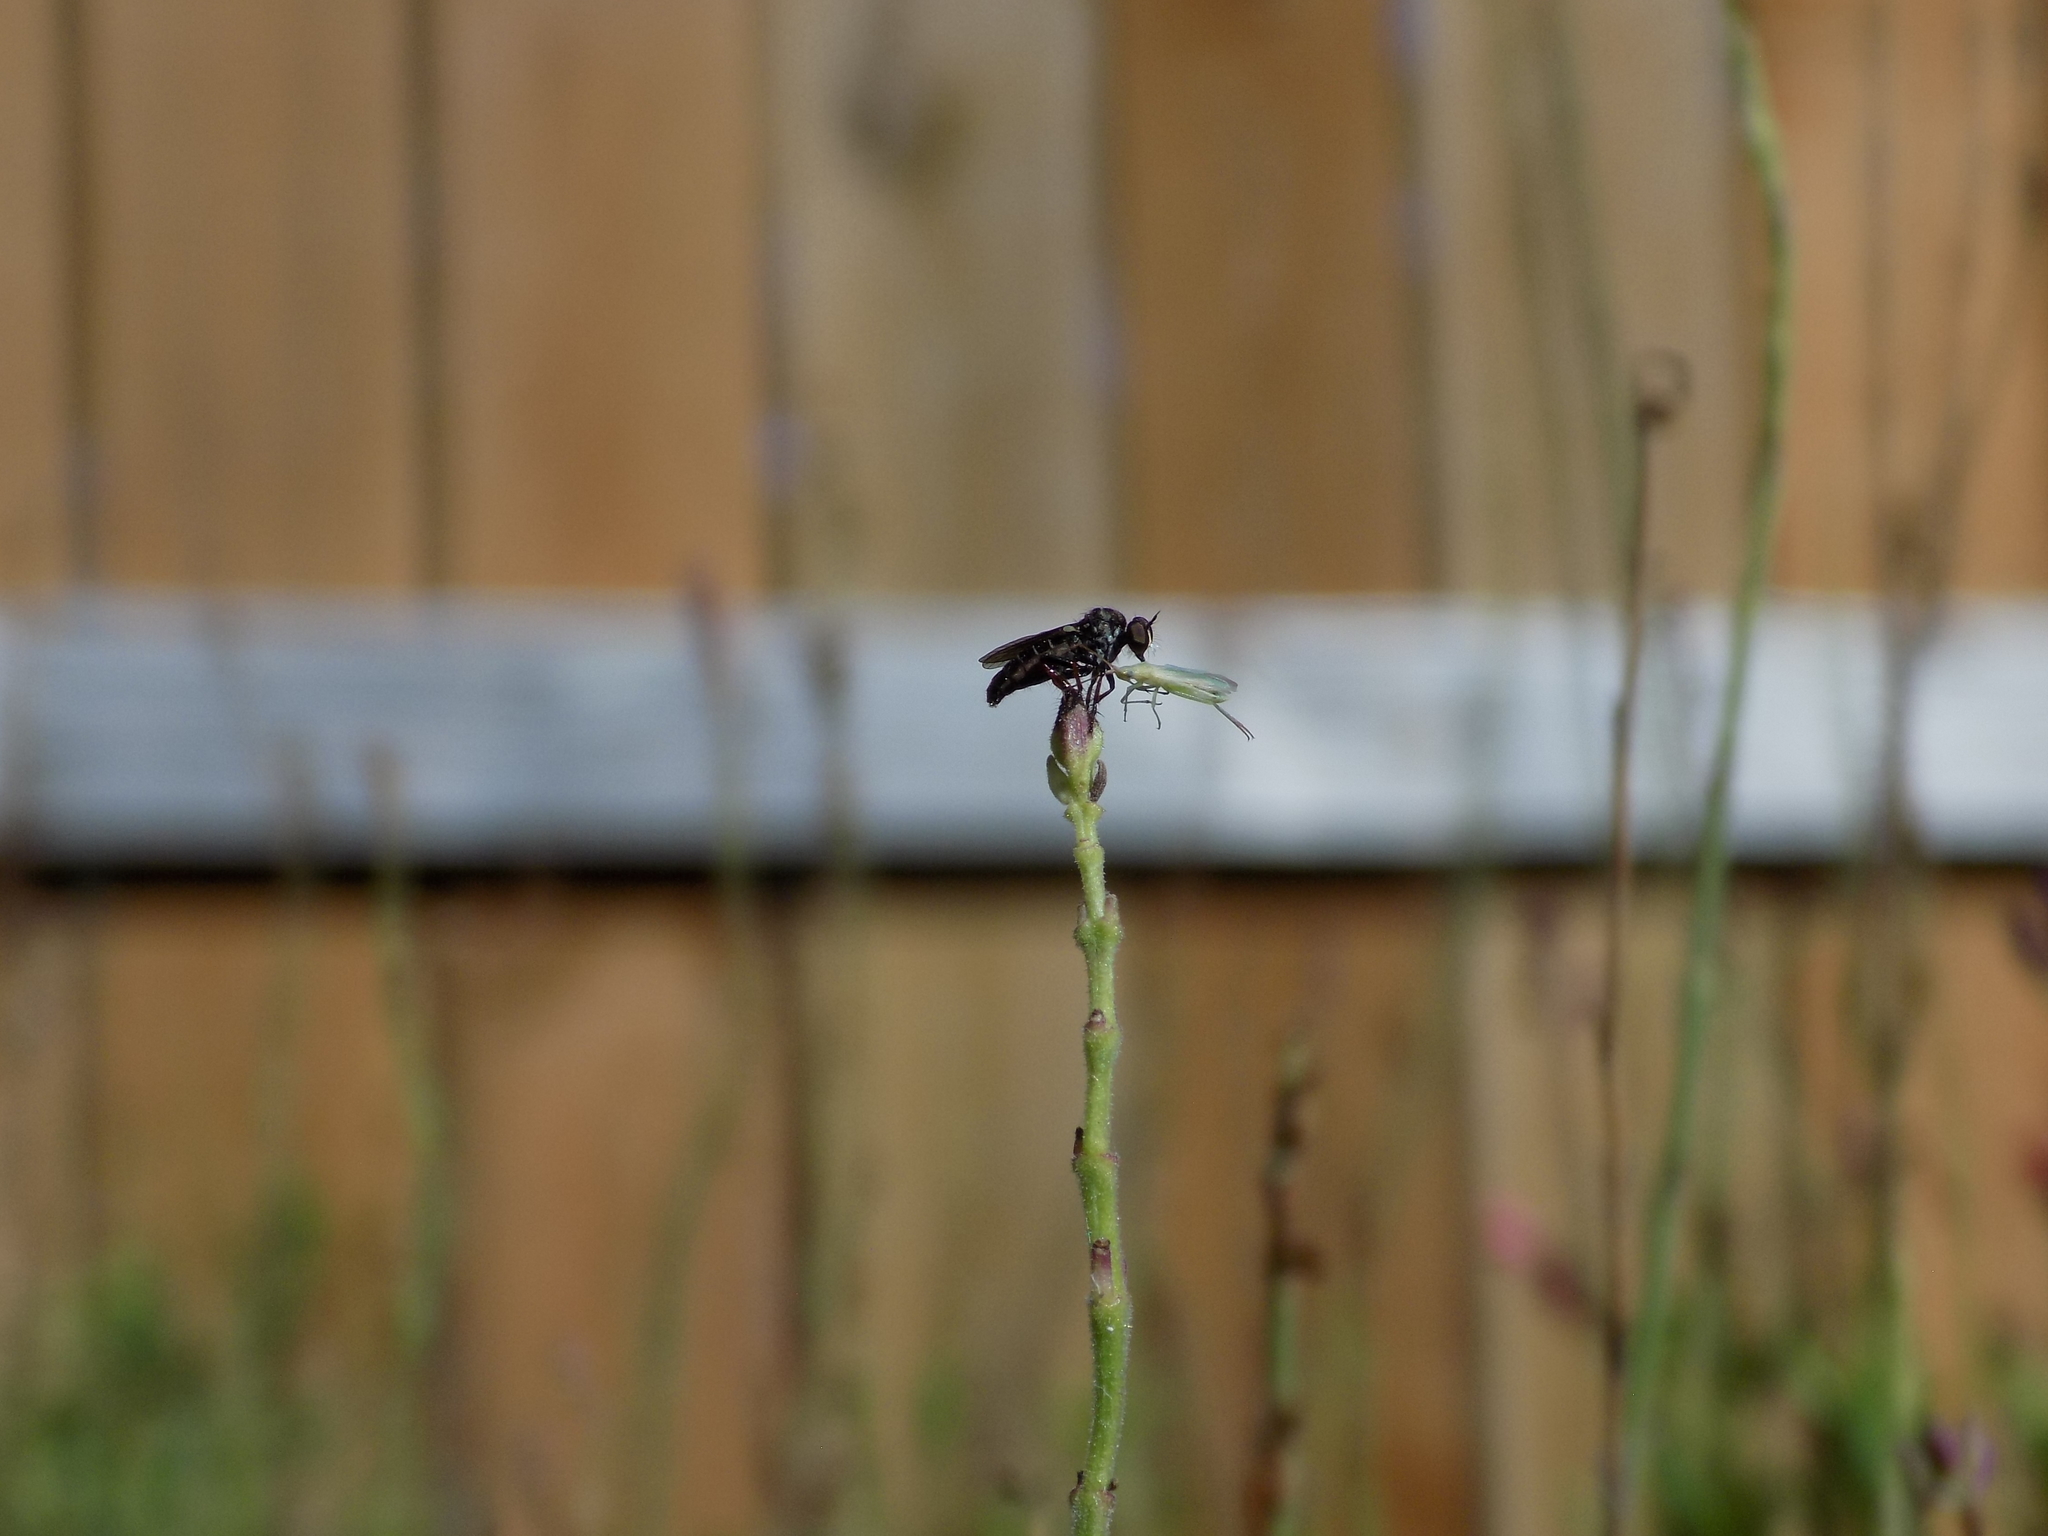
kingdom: Animalia
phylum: Arthropoda
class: Insecta
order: Diptera
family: Asilidae
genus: Hadrokolos
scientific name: Hadrokolos texanus
